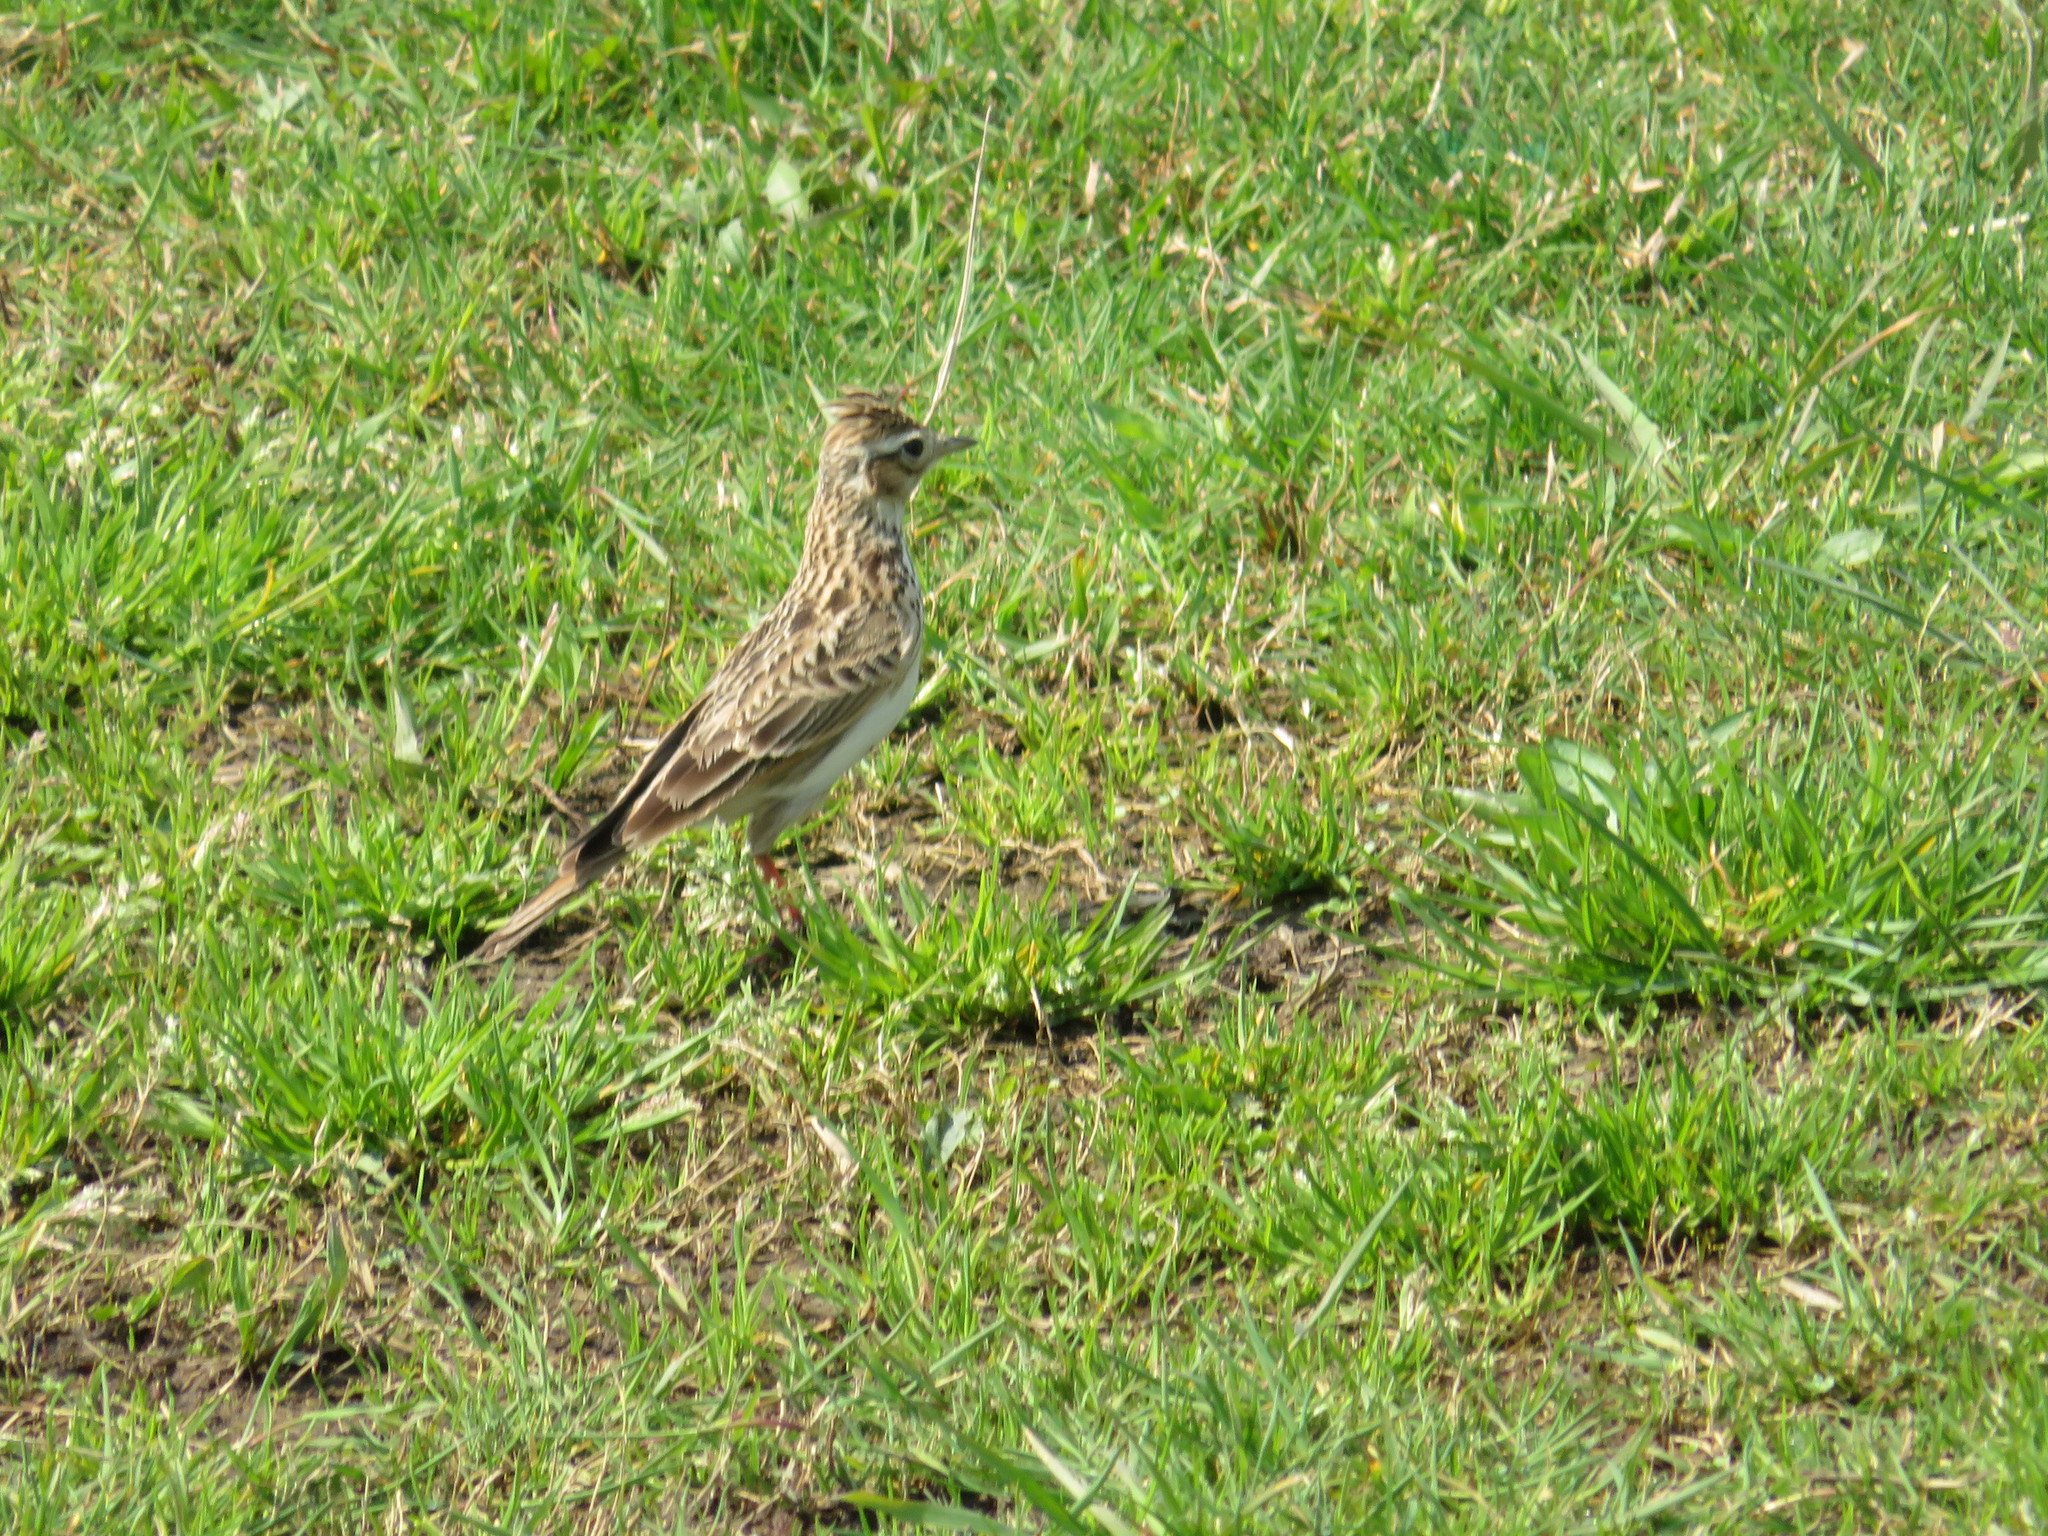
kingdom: Animalia
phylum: Chordata
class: Aves
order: Passeriformes
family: Alaudidae
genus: Alauda
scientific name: Alauda arvensis
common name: Eurasian skylark
